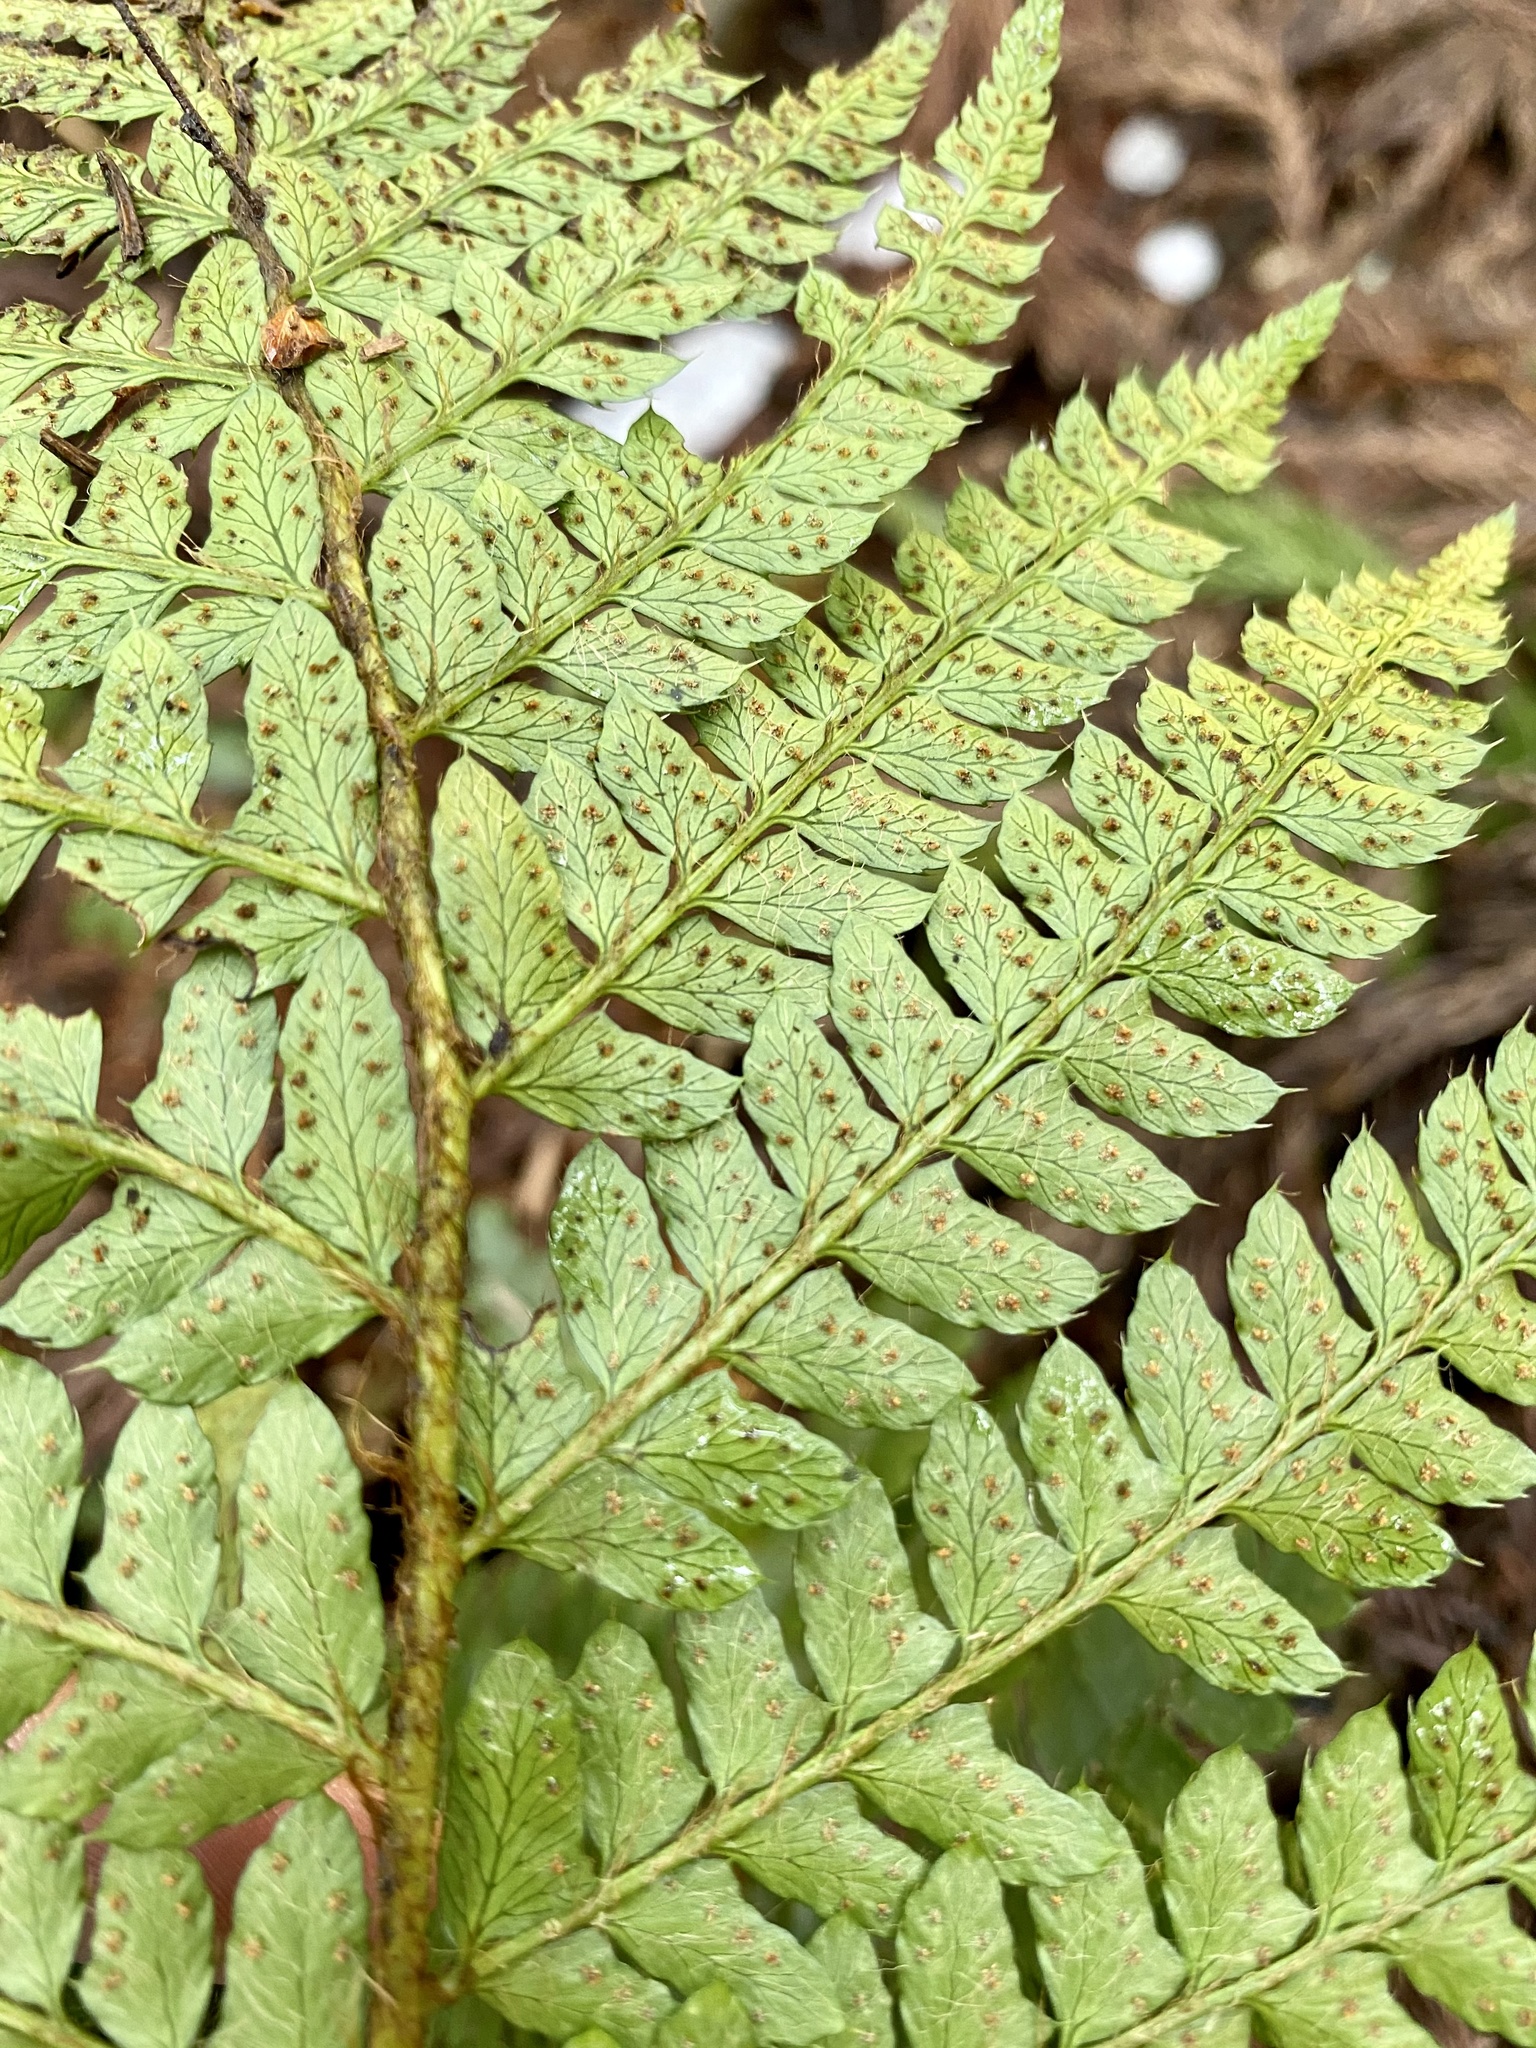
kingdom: Plantae
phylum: Tracheophyta
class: Polypodiopsida
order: Polypodiales
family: Dryopteridaceae
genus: Polystichum
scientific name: Polystichum luctuosum
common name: Korean rockfern
